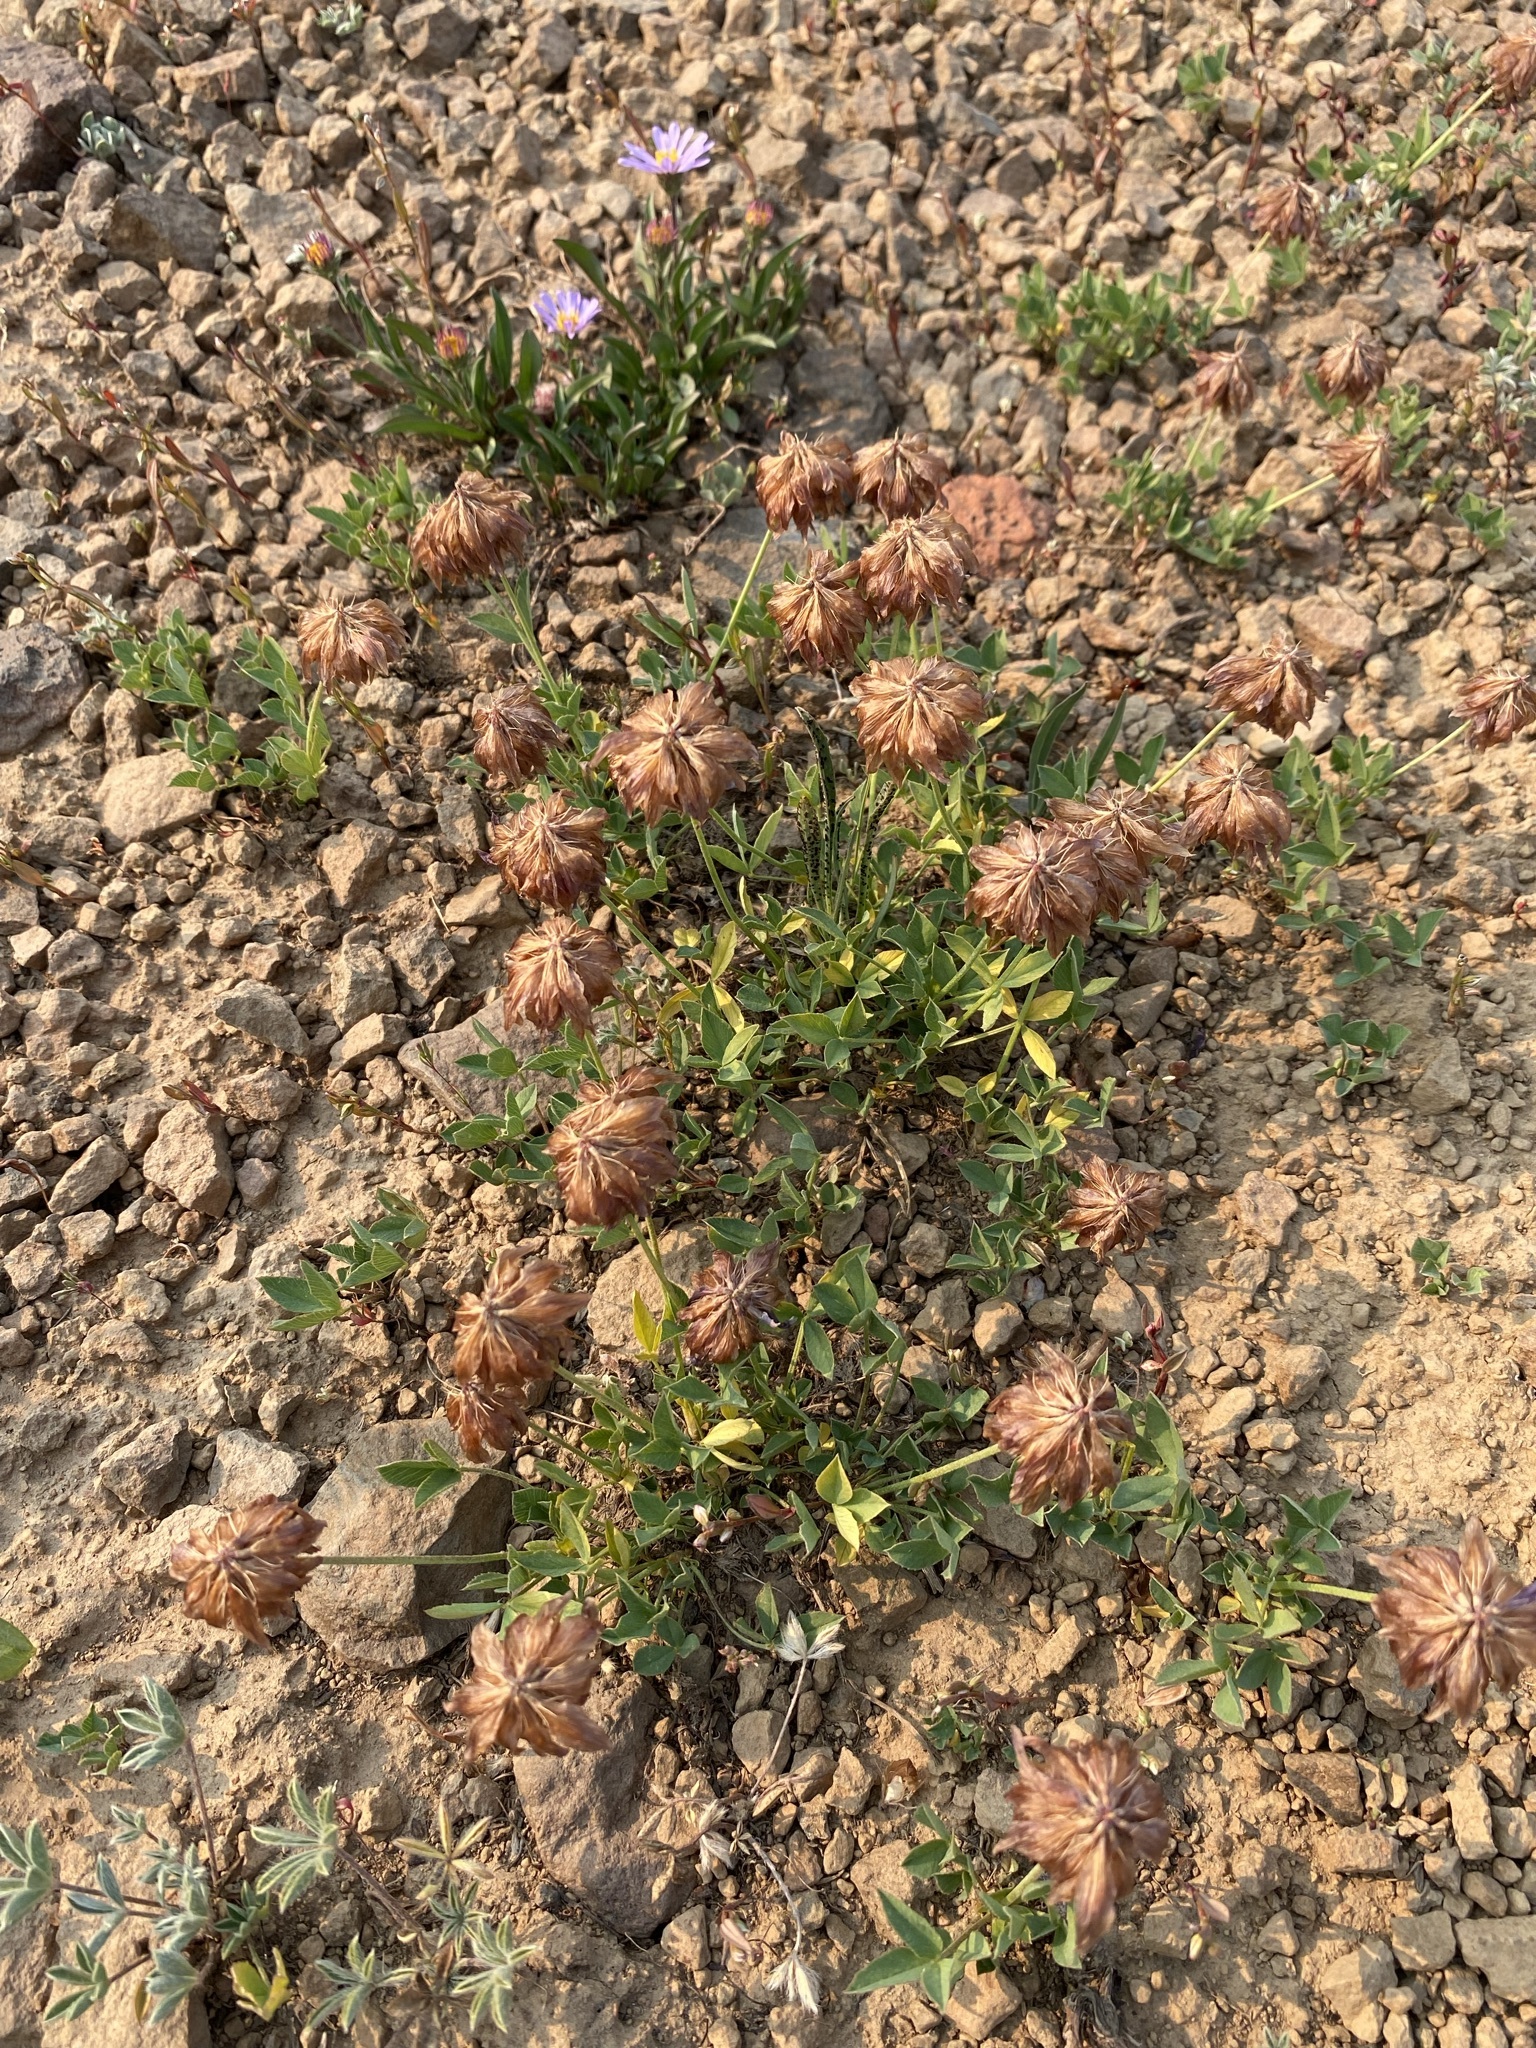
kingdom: Plantae
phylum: Tracheophyta
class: Magnoliopsida
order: Fabales
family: Fabaceae
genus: Trifolium
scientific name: Trifolium longipes
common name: Long-stalk clover
